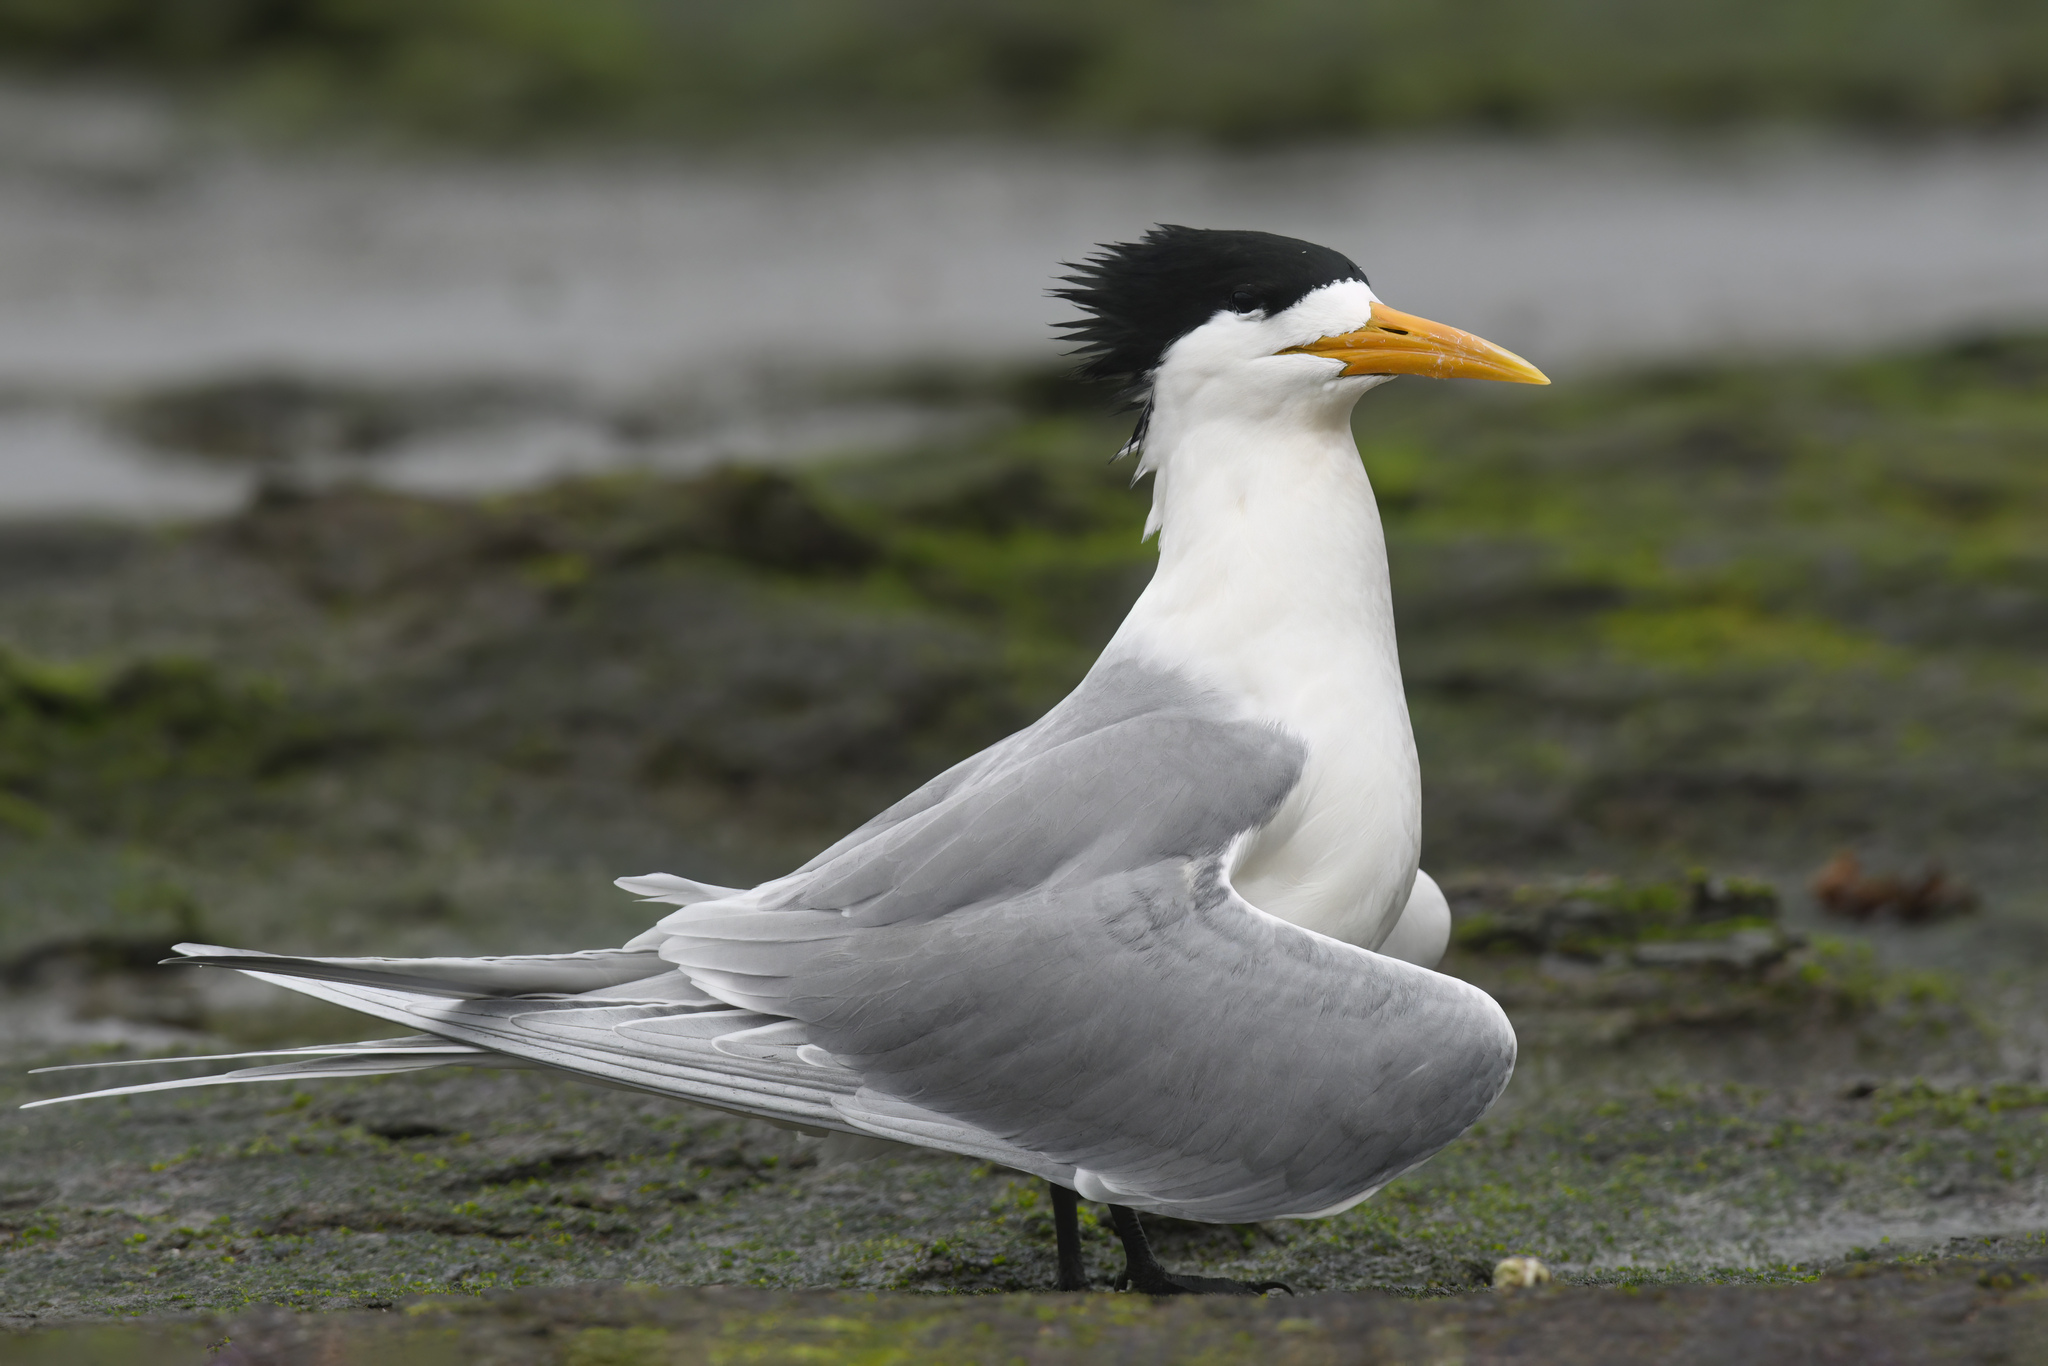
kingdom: Animalia
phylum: Chordata
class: Aves
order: Charadriiformes
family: Laridae
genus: Thalasseus
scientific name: Thalasseus bergii
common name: Greater crested tern
